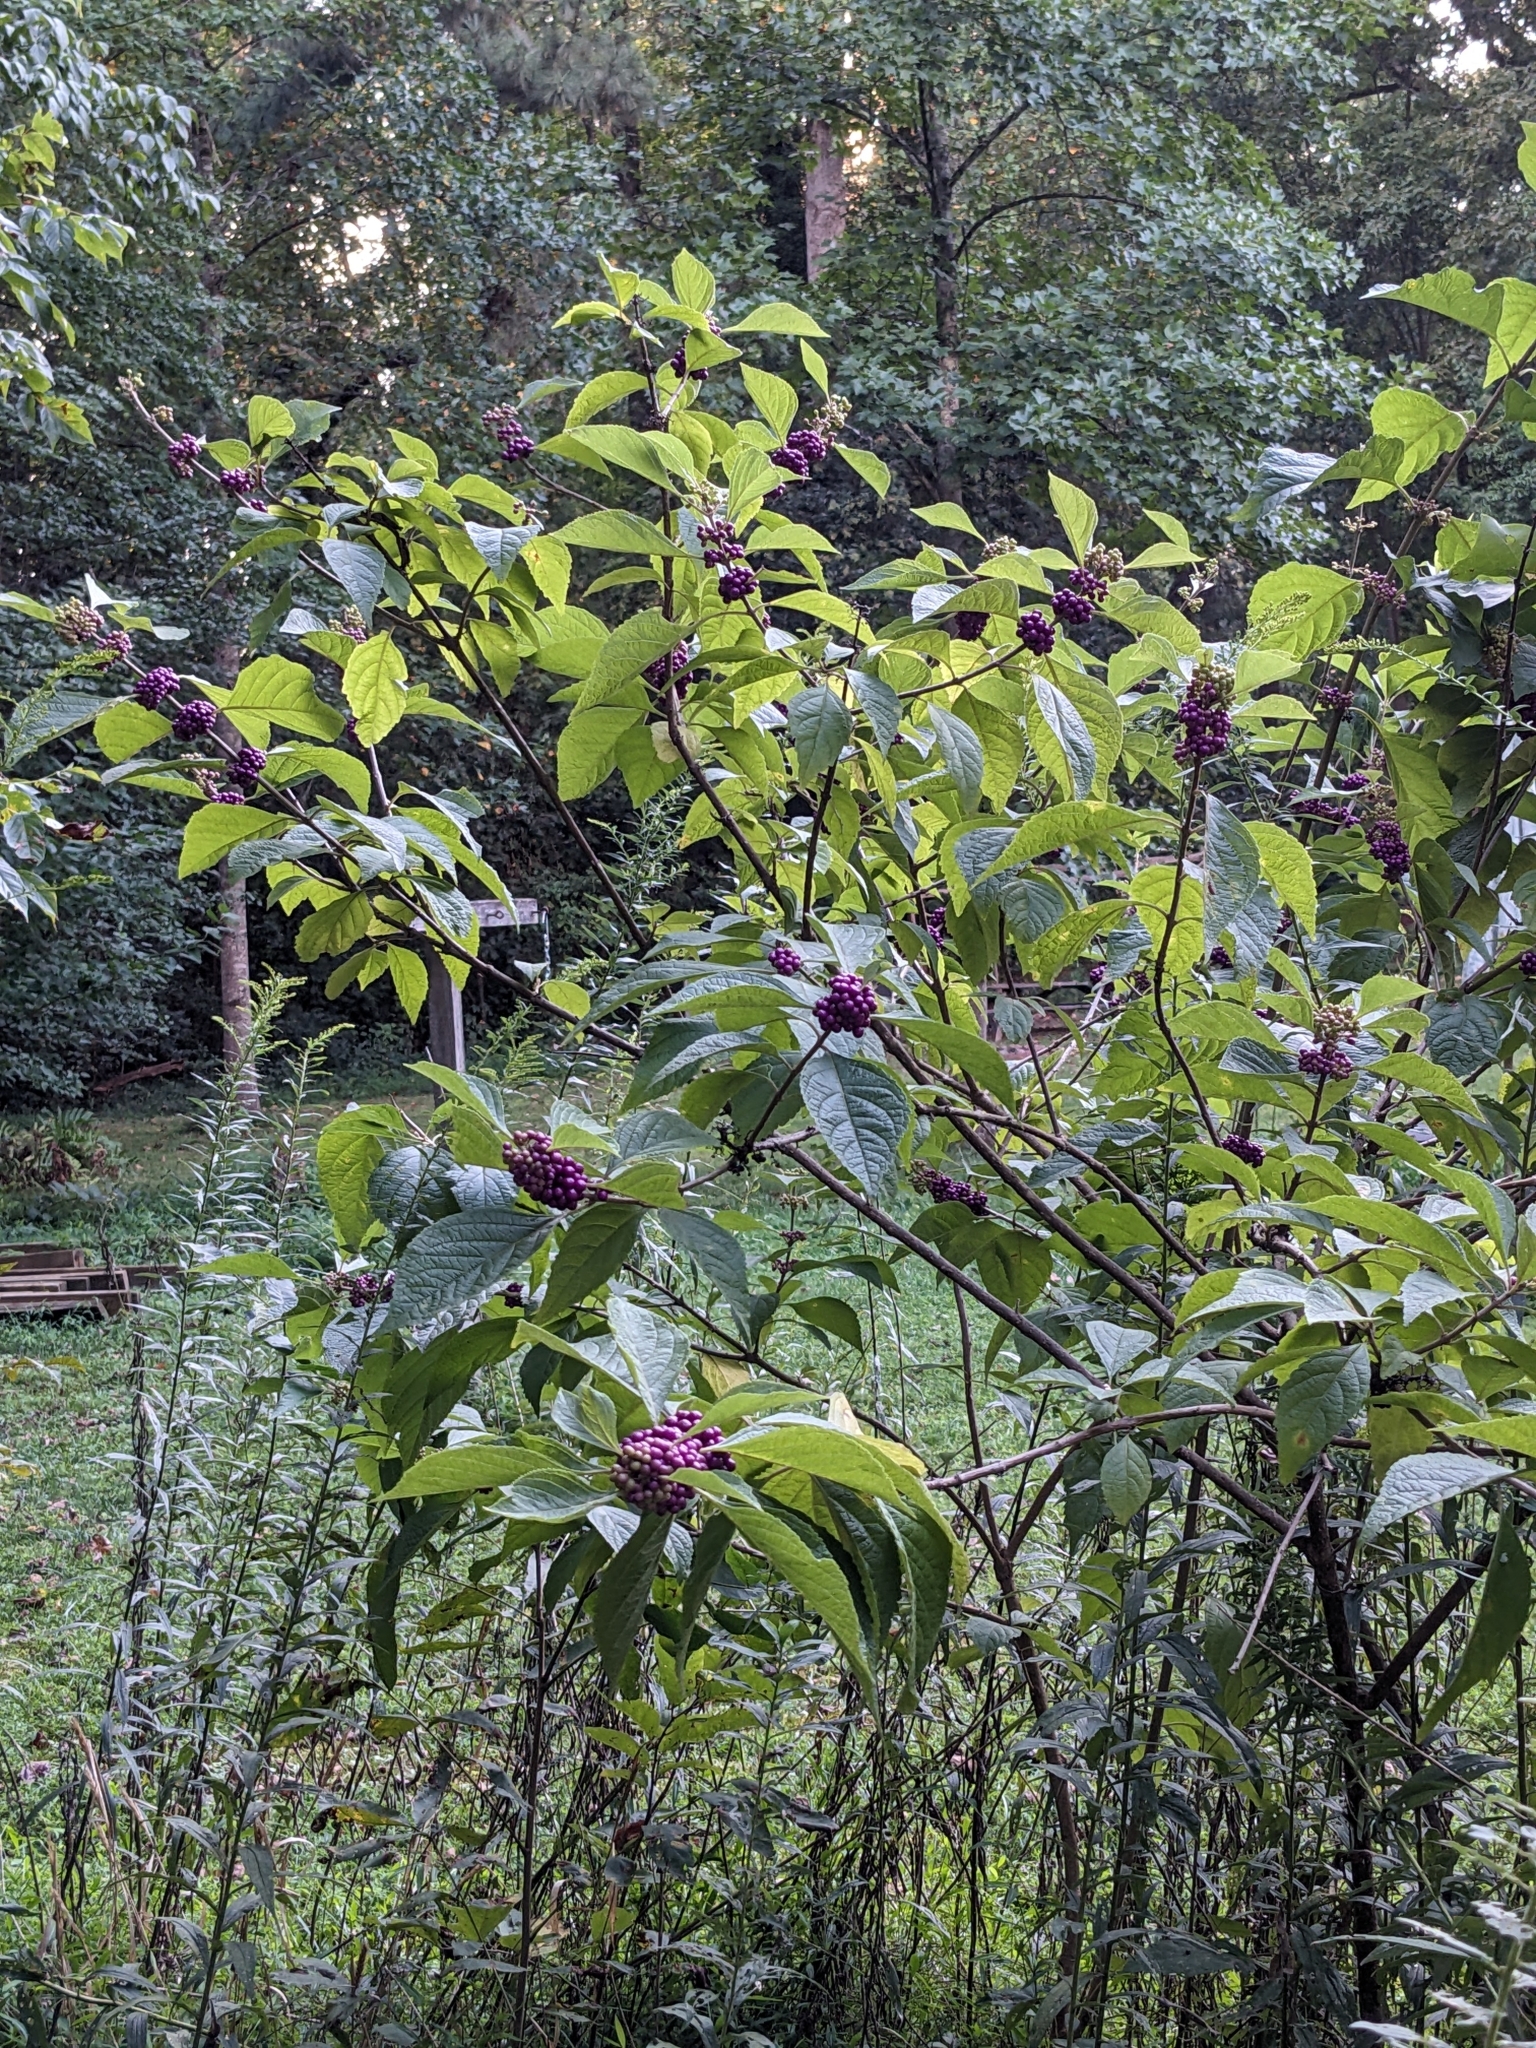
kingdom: Plantae
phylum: Tracheophyta
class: Magnoliopsida
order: Lamiales
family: Lamiaceae
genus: Callicarpa
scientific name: Callicarpa americana
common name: American beautyberry
